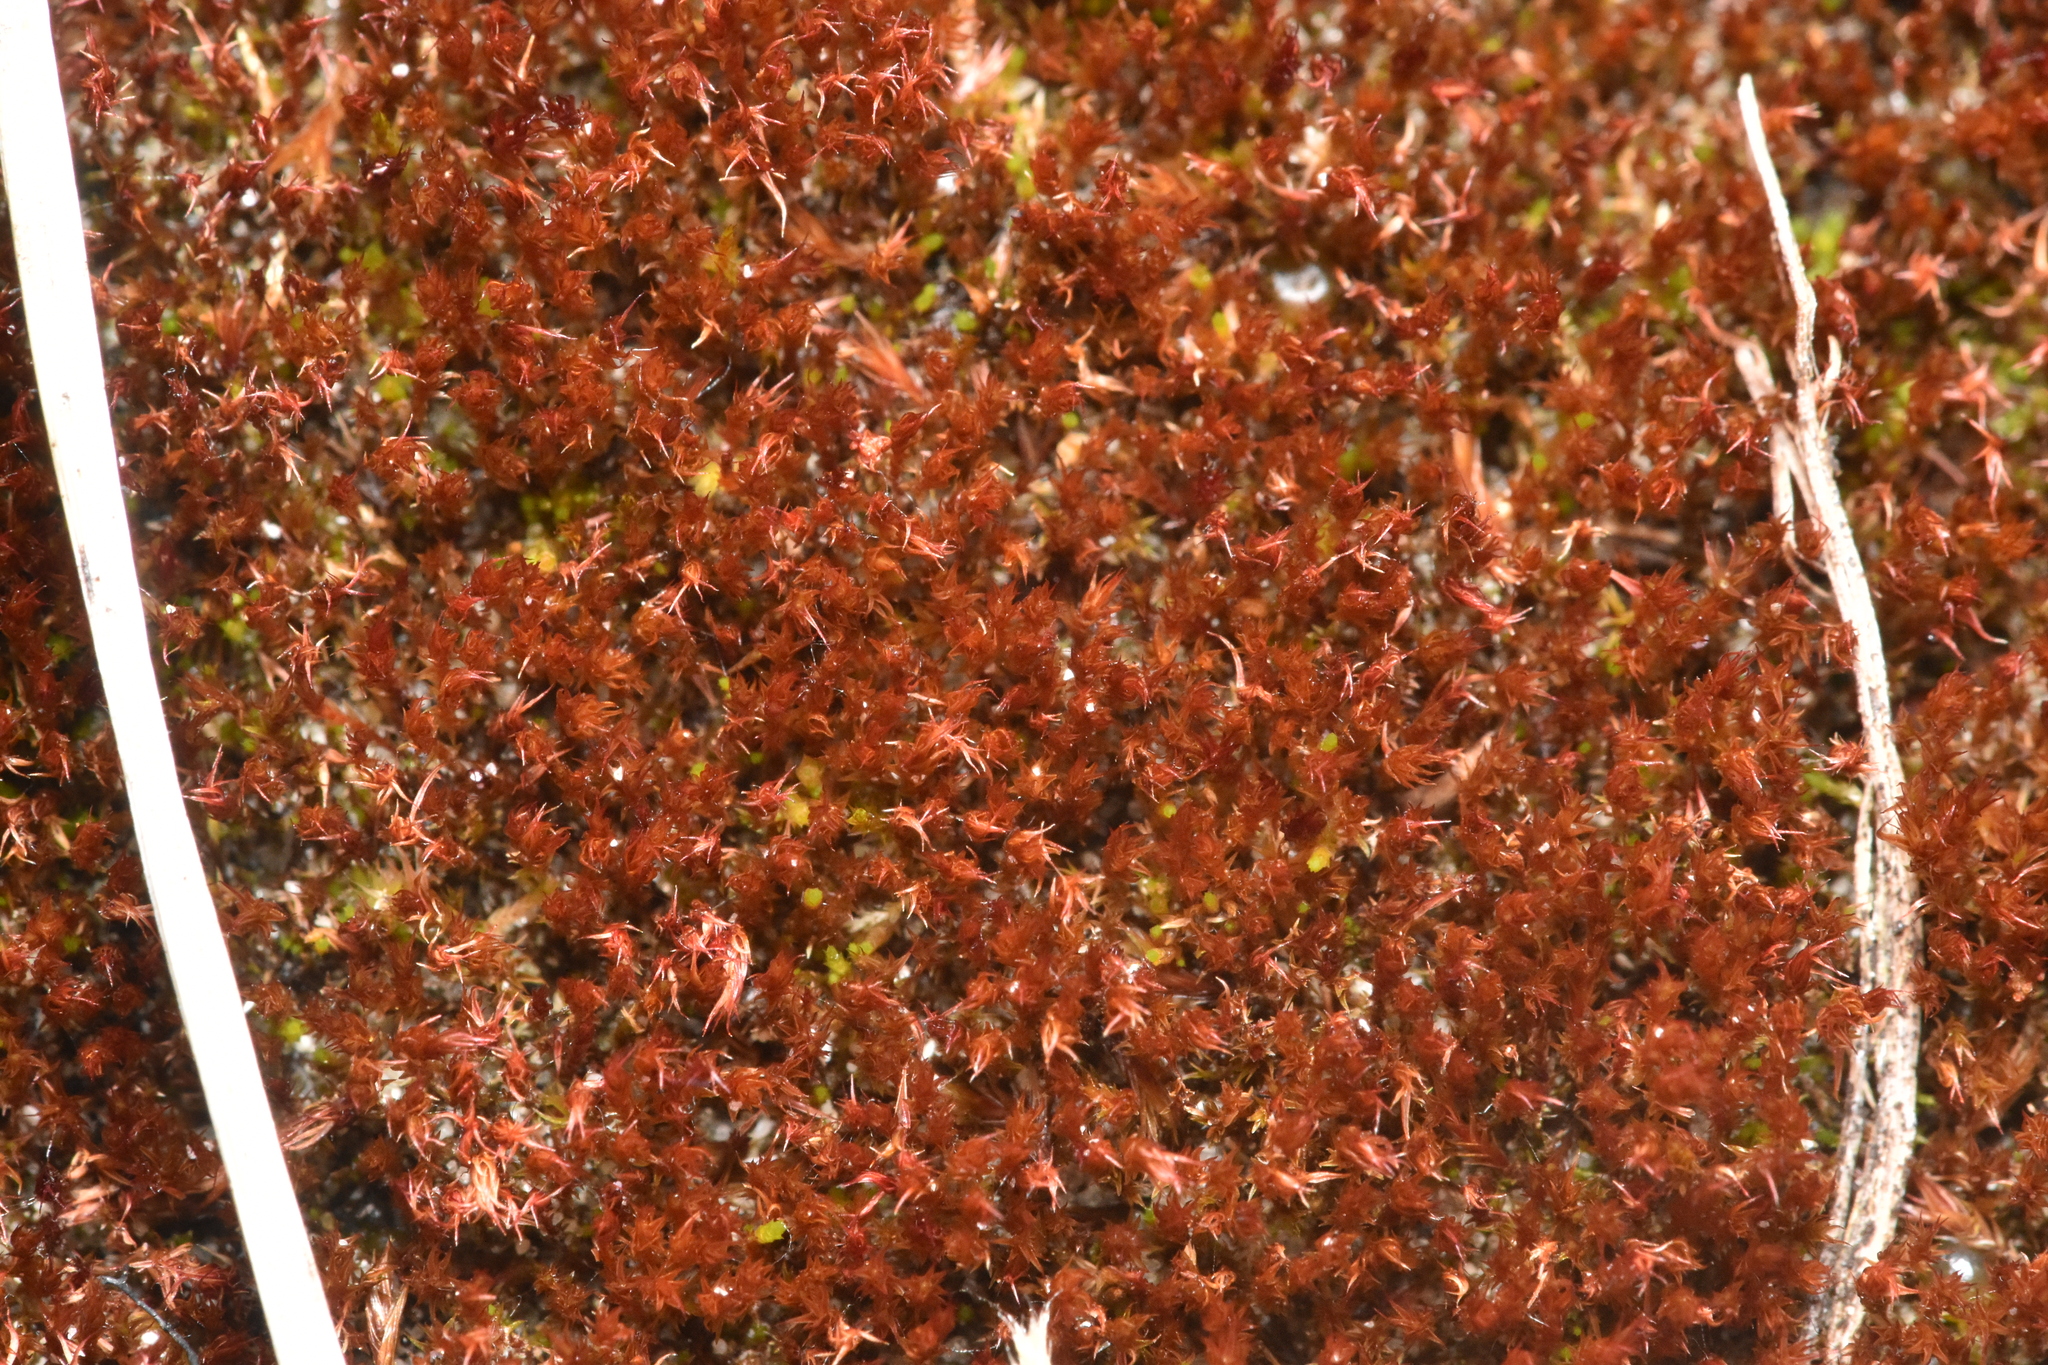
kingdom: Plantae
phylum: Bryophyta
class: Bryopsida
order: Dicranales
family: Ditrichaceae
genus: Ceratodon
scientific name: Ceratodon purpureus
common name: Redshank
